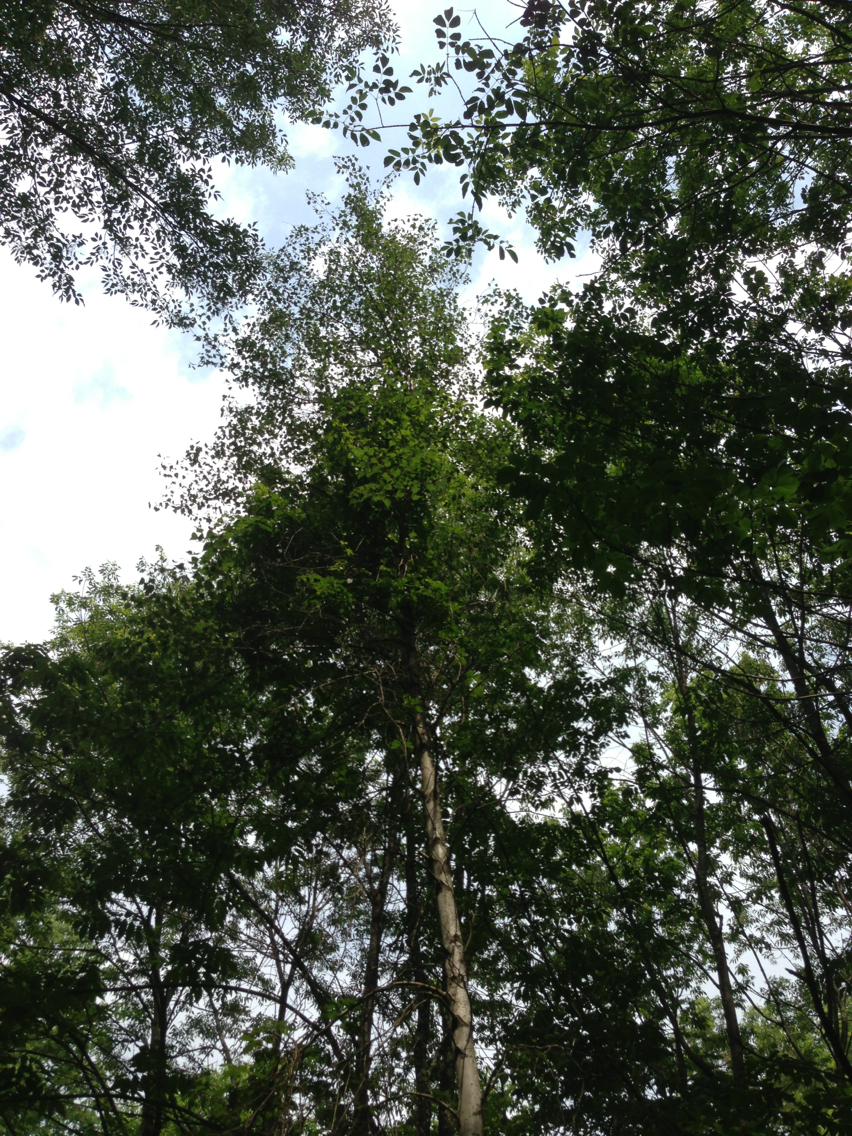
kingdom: Plantae
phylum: Tracheophyta
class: Magnoliopsida
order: Malpighiales
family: Salicaceae
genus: Populus
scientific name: Populus tremuloides
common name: Quaking aspen
